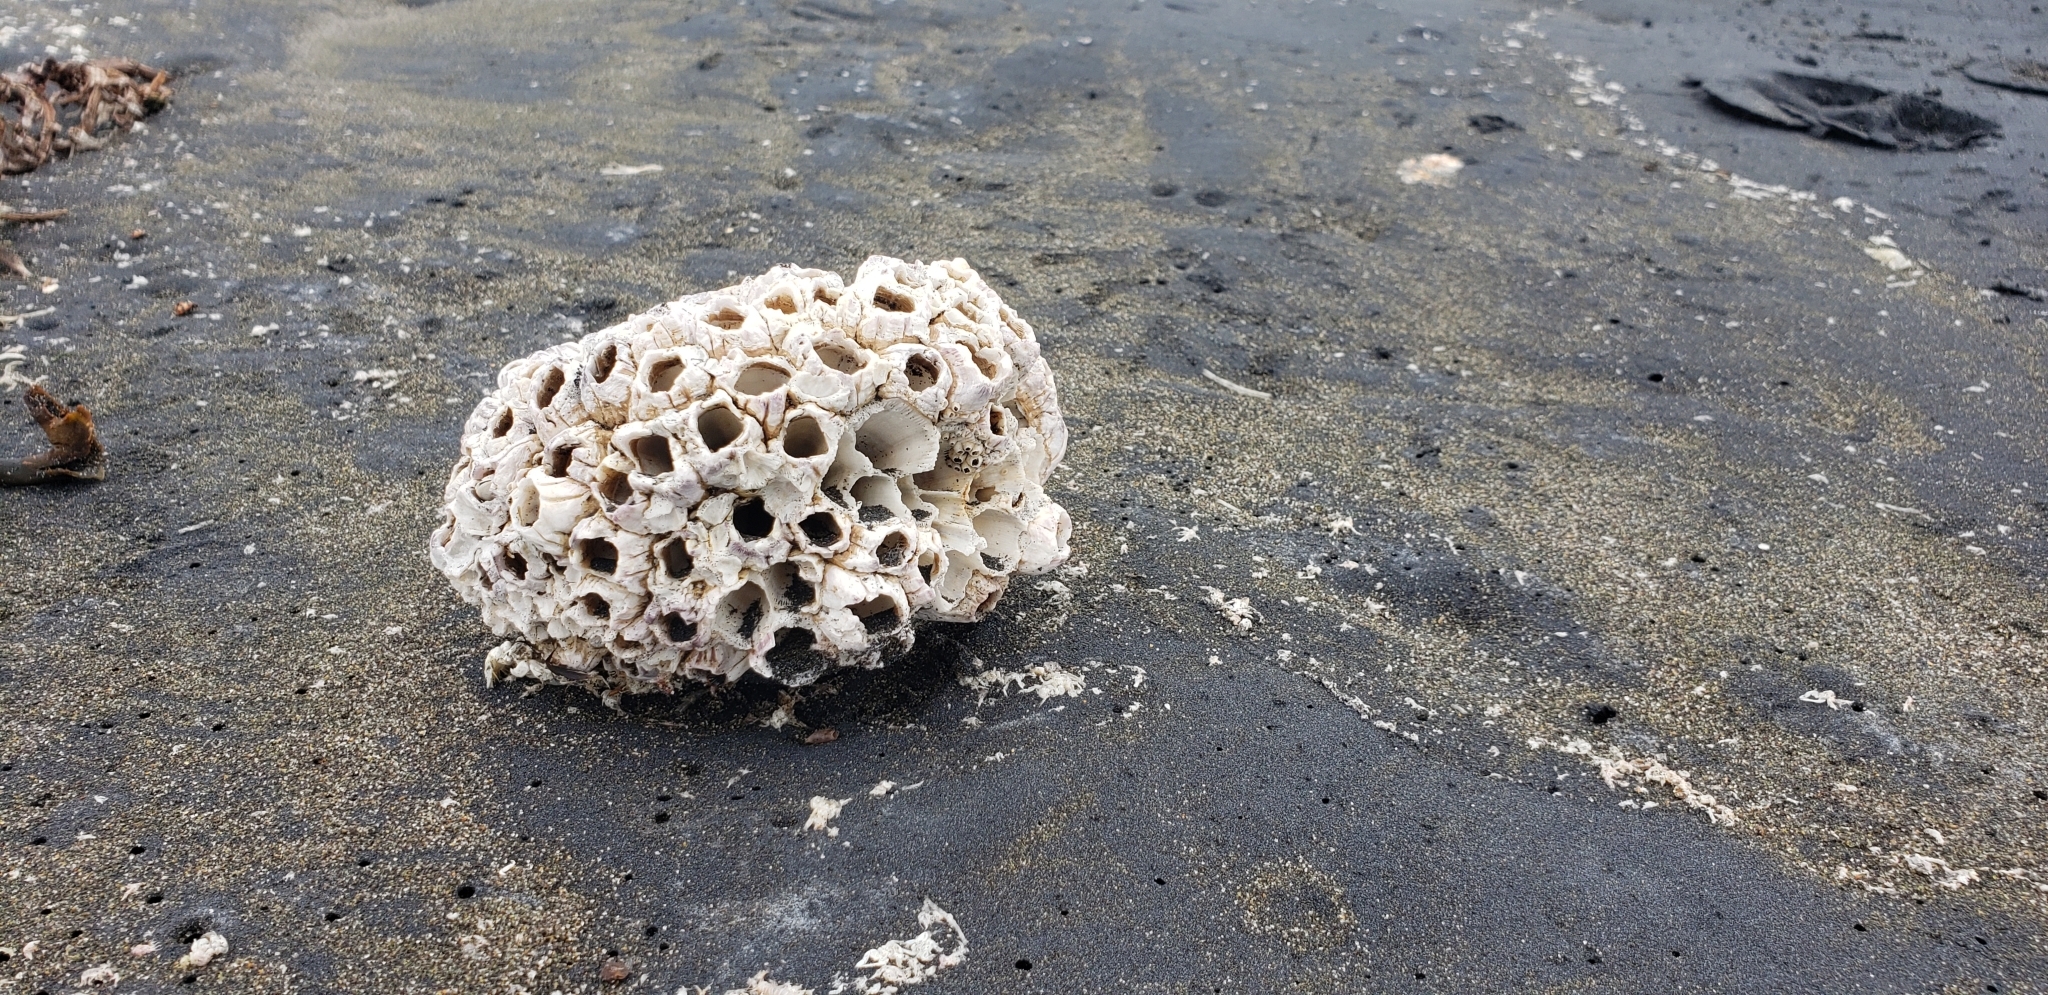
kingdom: Animalia
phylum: Arthropoda
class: Maxillopoda
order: Sessilia
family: Balanidae
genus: Balanus
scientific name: Balanus laevis
